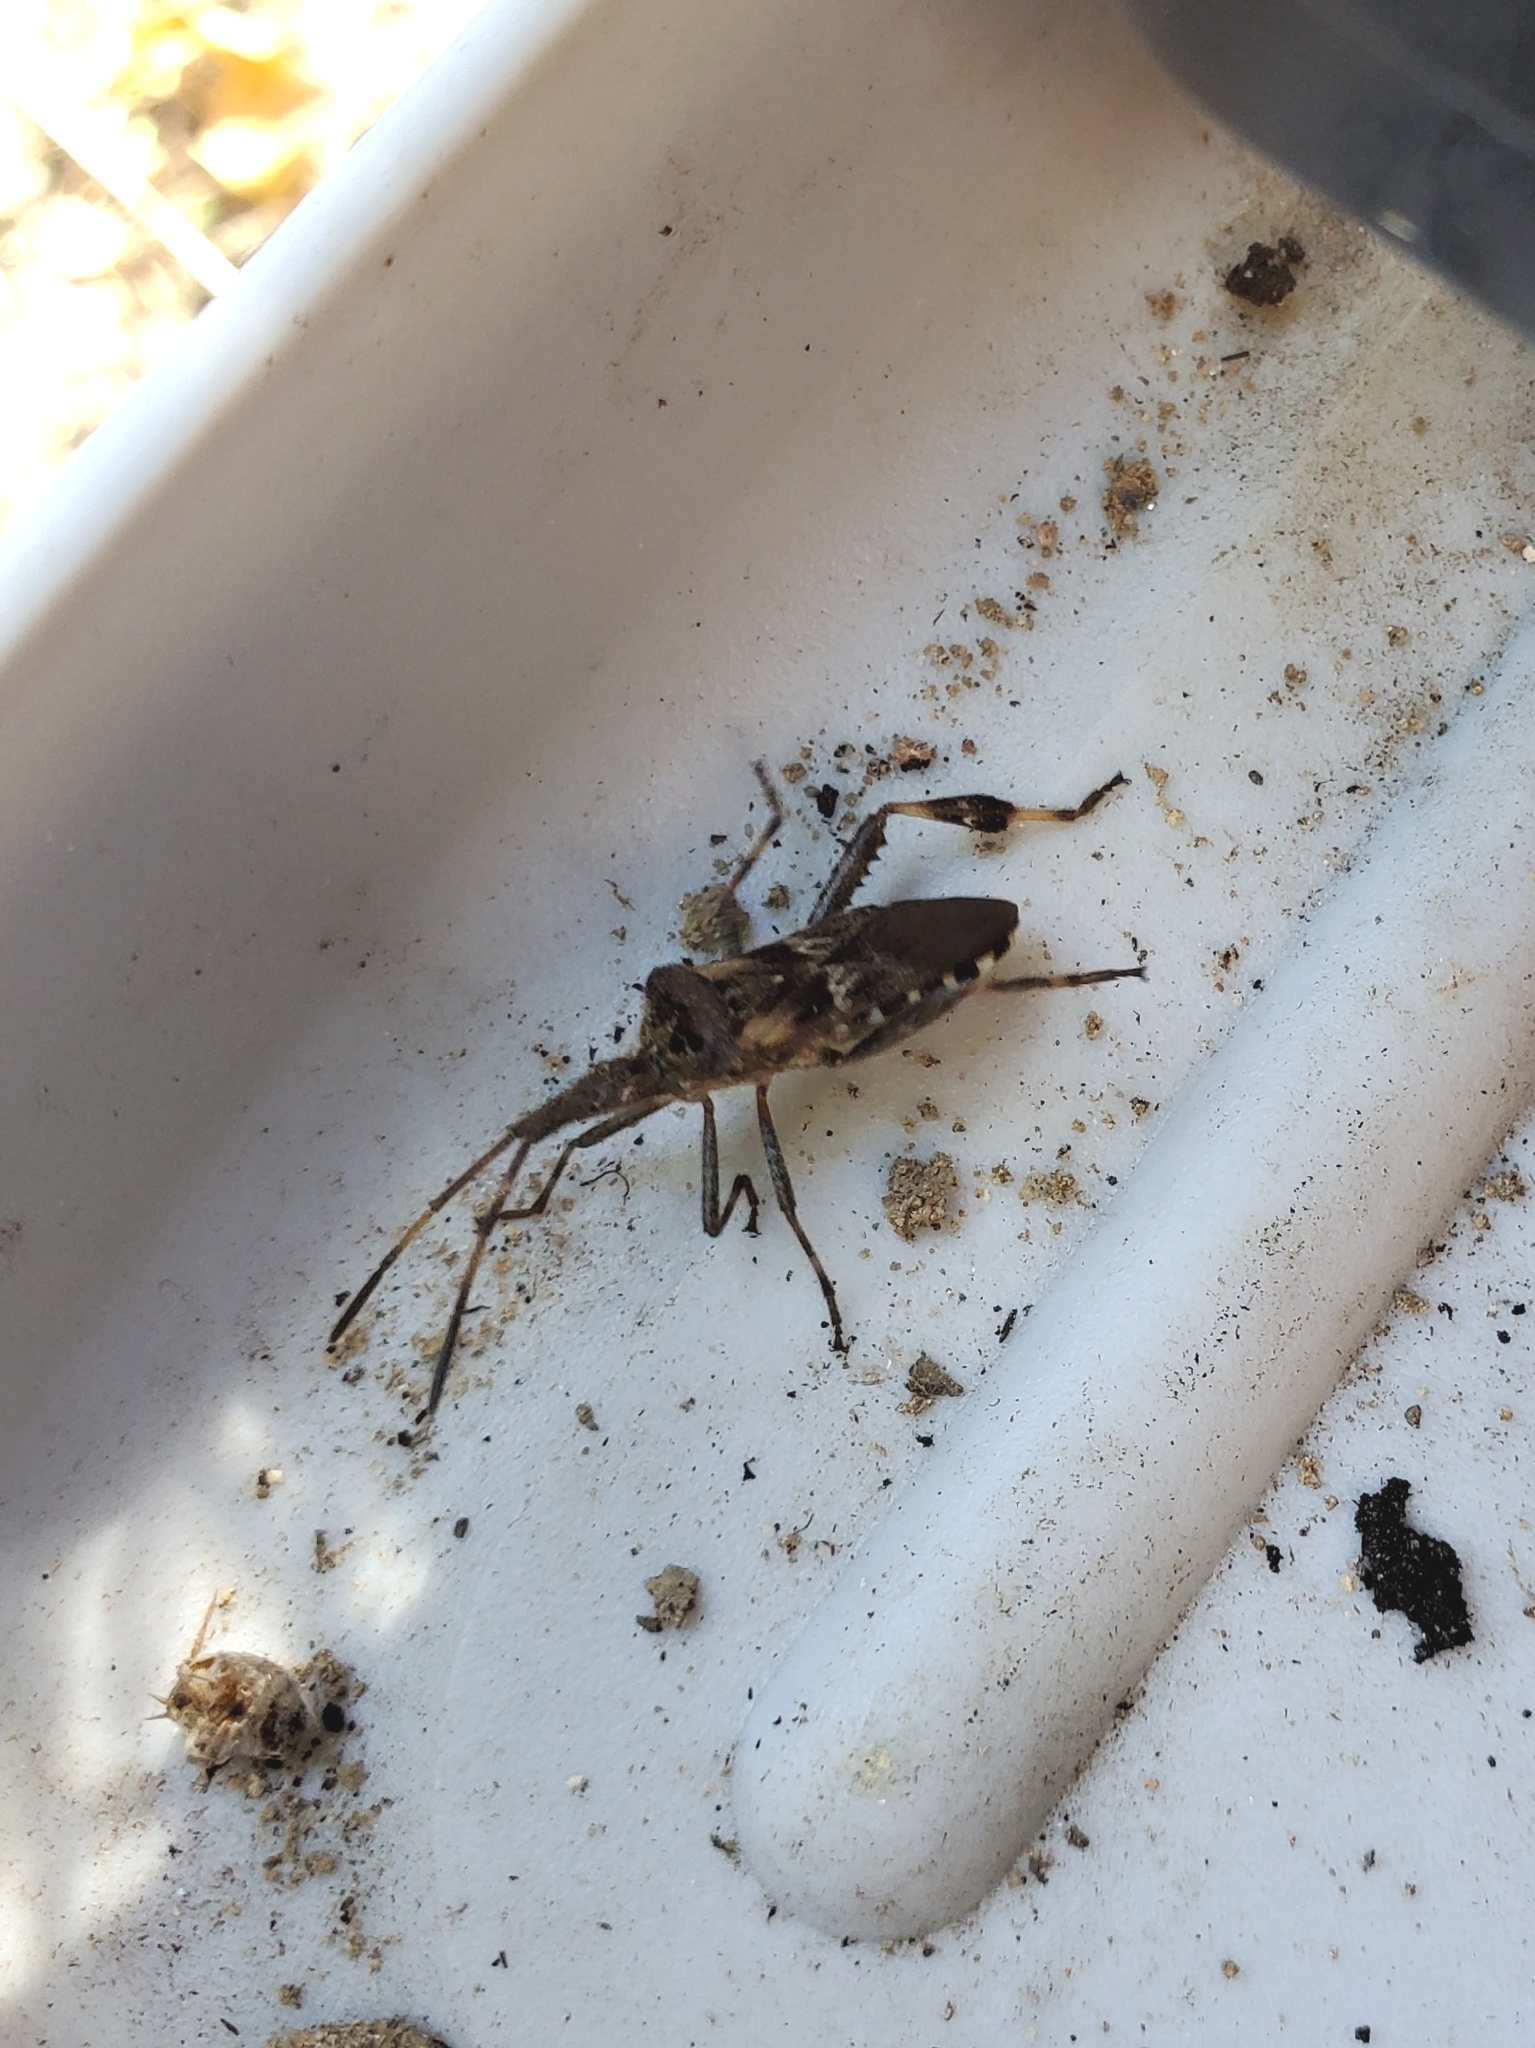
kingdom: Animalia
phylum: Arthropoda
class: Insecta
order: Hemiptera
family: Coreidae
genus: Leptoglossus
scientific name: Leptoglossus occidentalis
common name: Western conifer-seed bug
